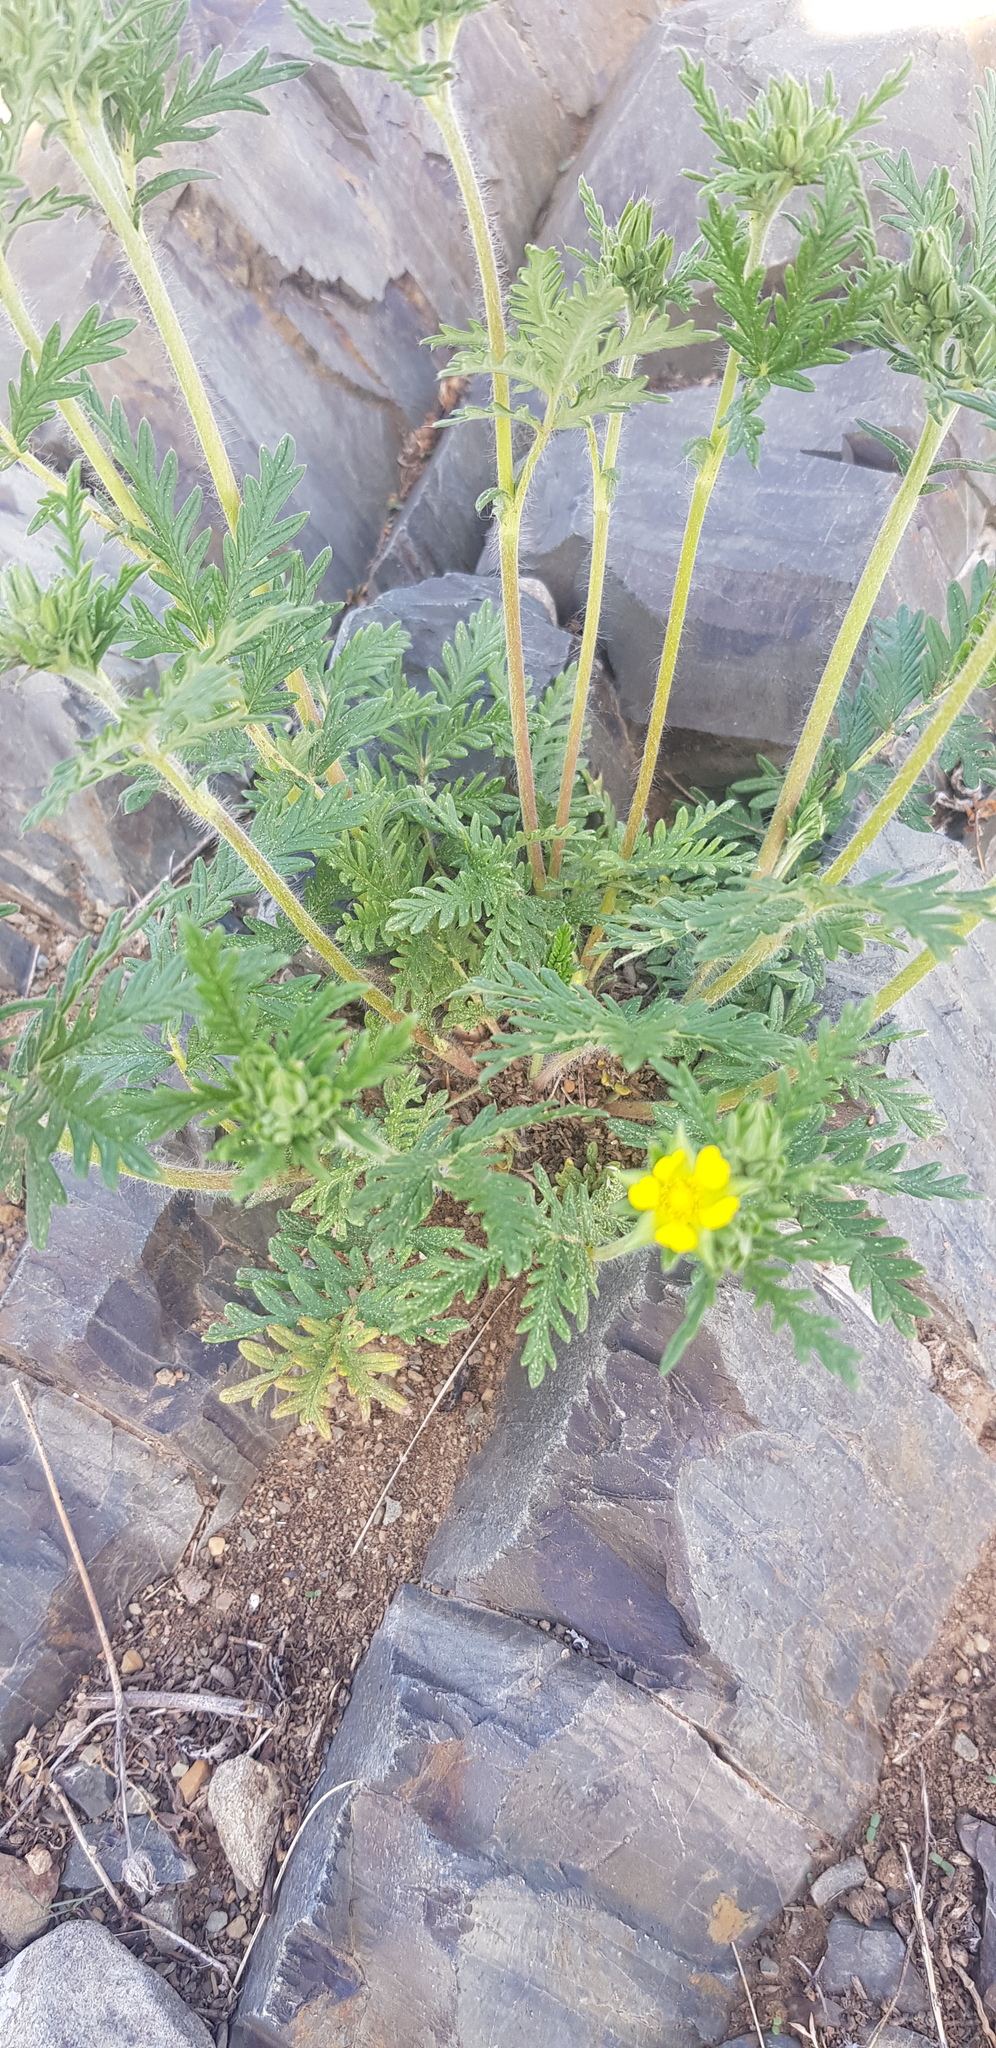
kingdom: Plantae
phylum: Tracheophyta
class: Magnoliopsida
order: Rosales
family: Rosaceae
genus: Potentilla
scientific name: Potentilla tergemina
